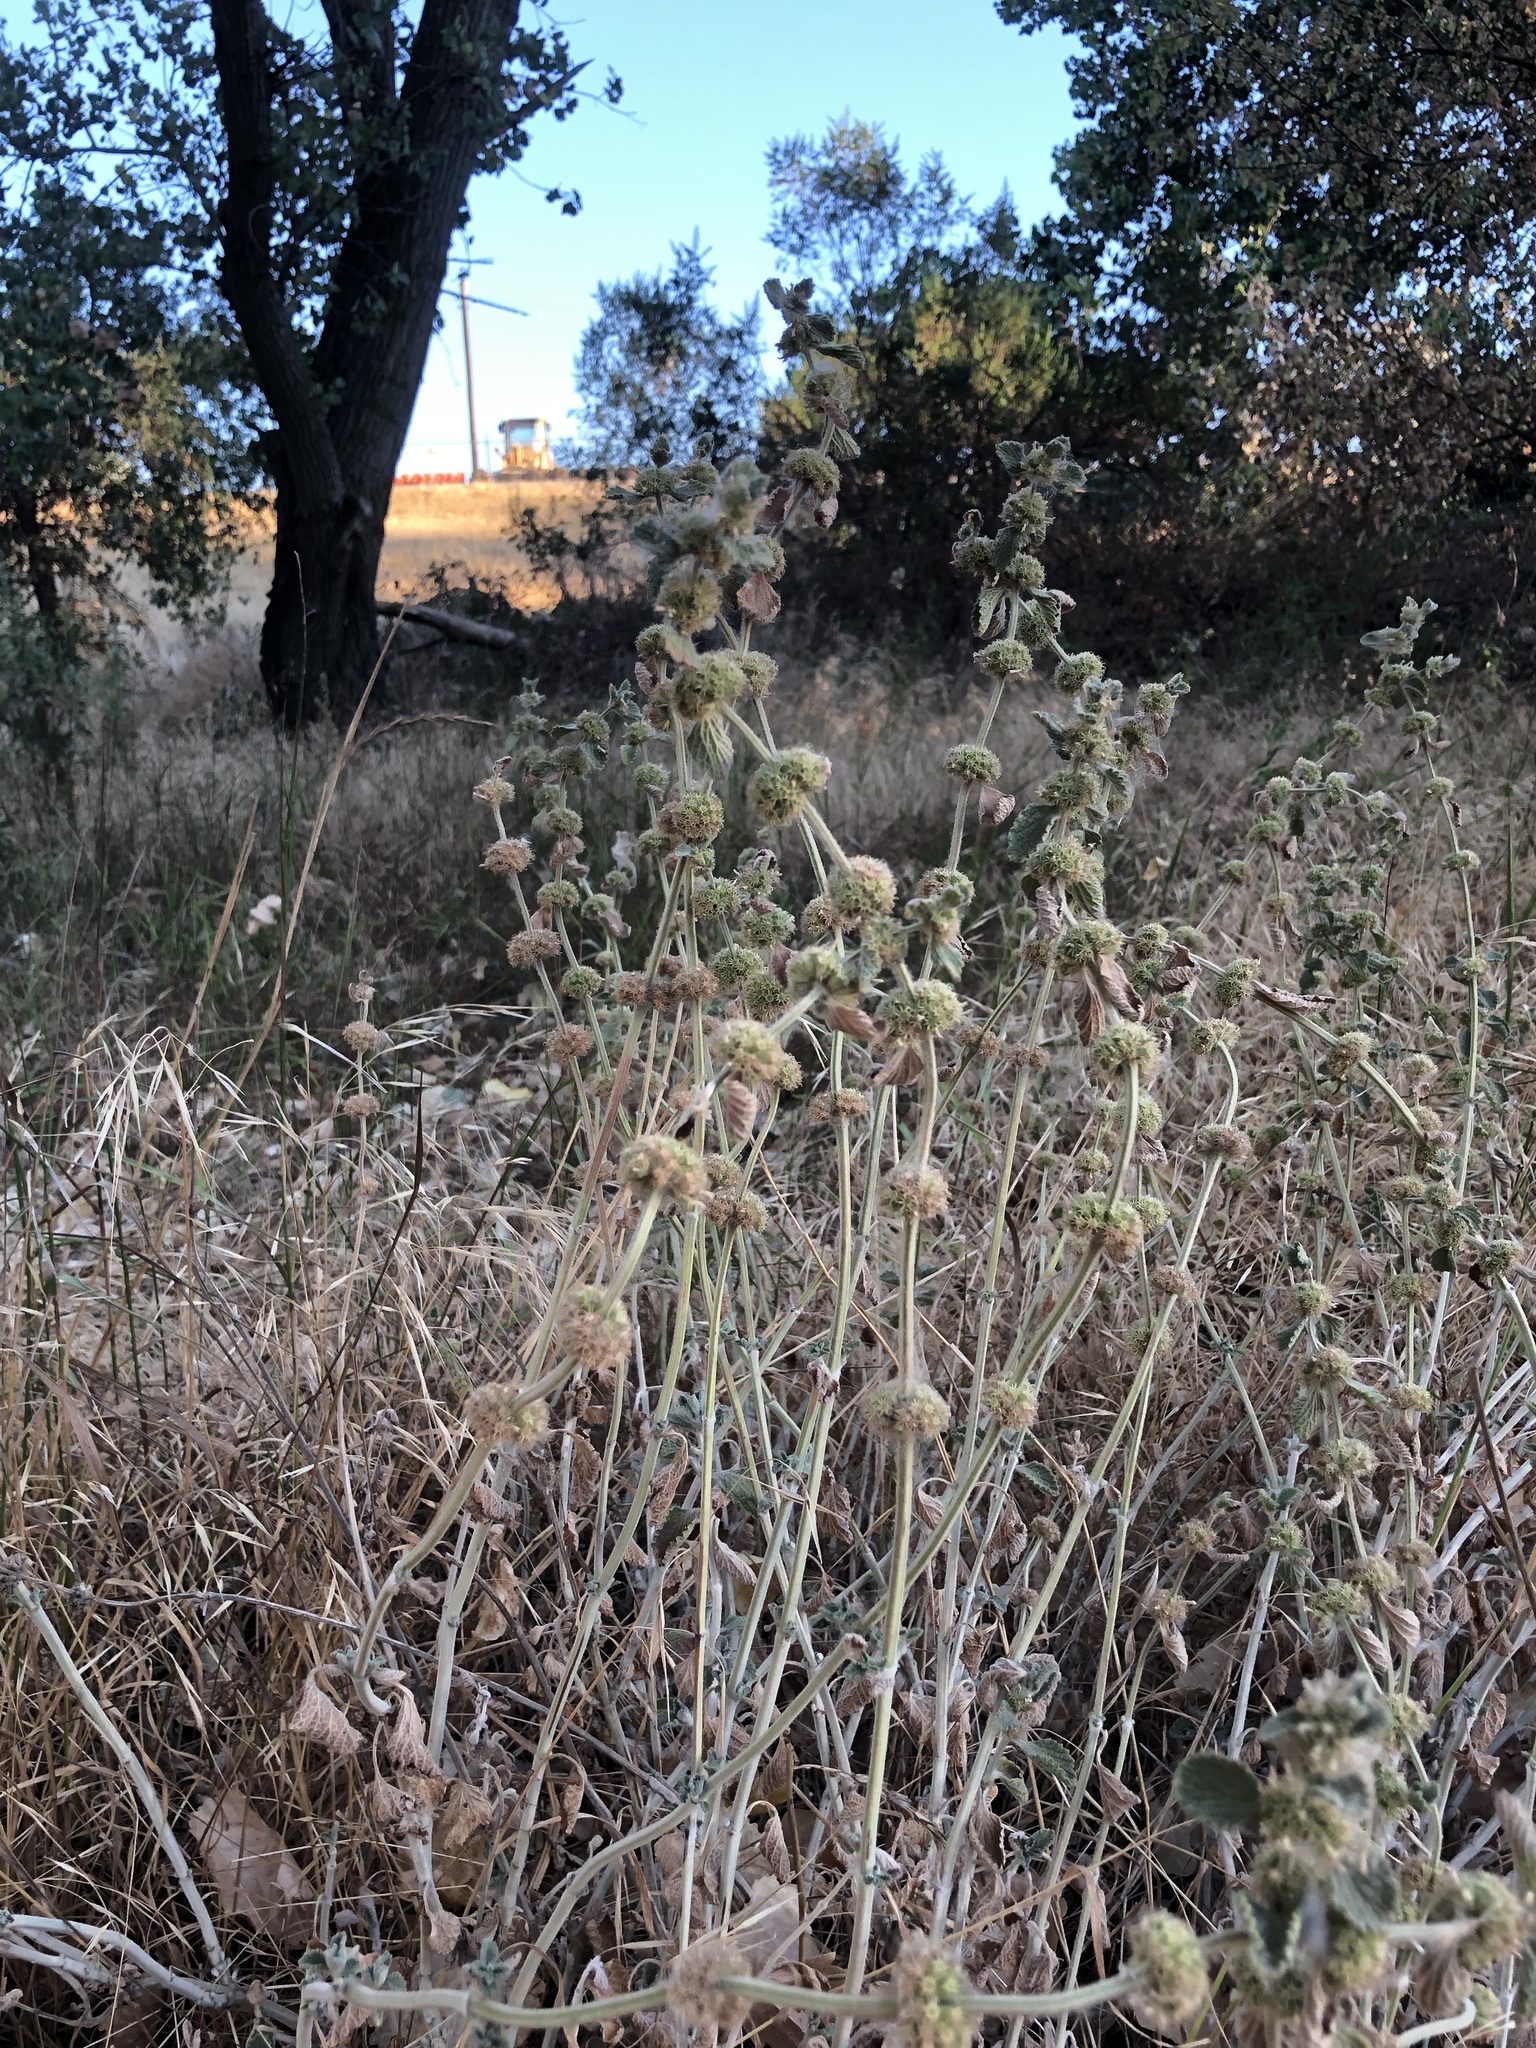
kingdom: Plantae
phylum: Tracheophyta
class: Magnoliopsida
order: Lamiales
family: Lamiaceae
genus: Marrubium
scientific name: Marrubium vulgare
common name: Horehound
